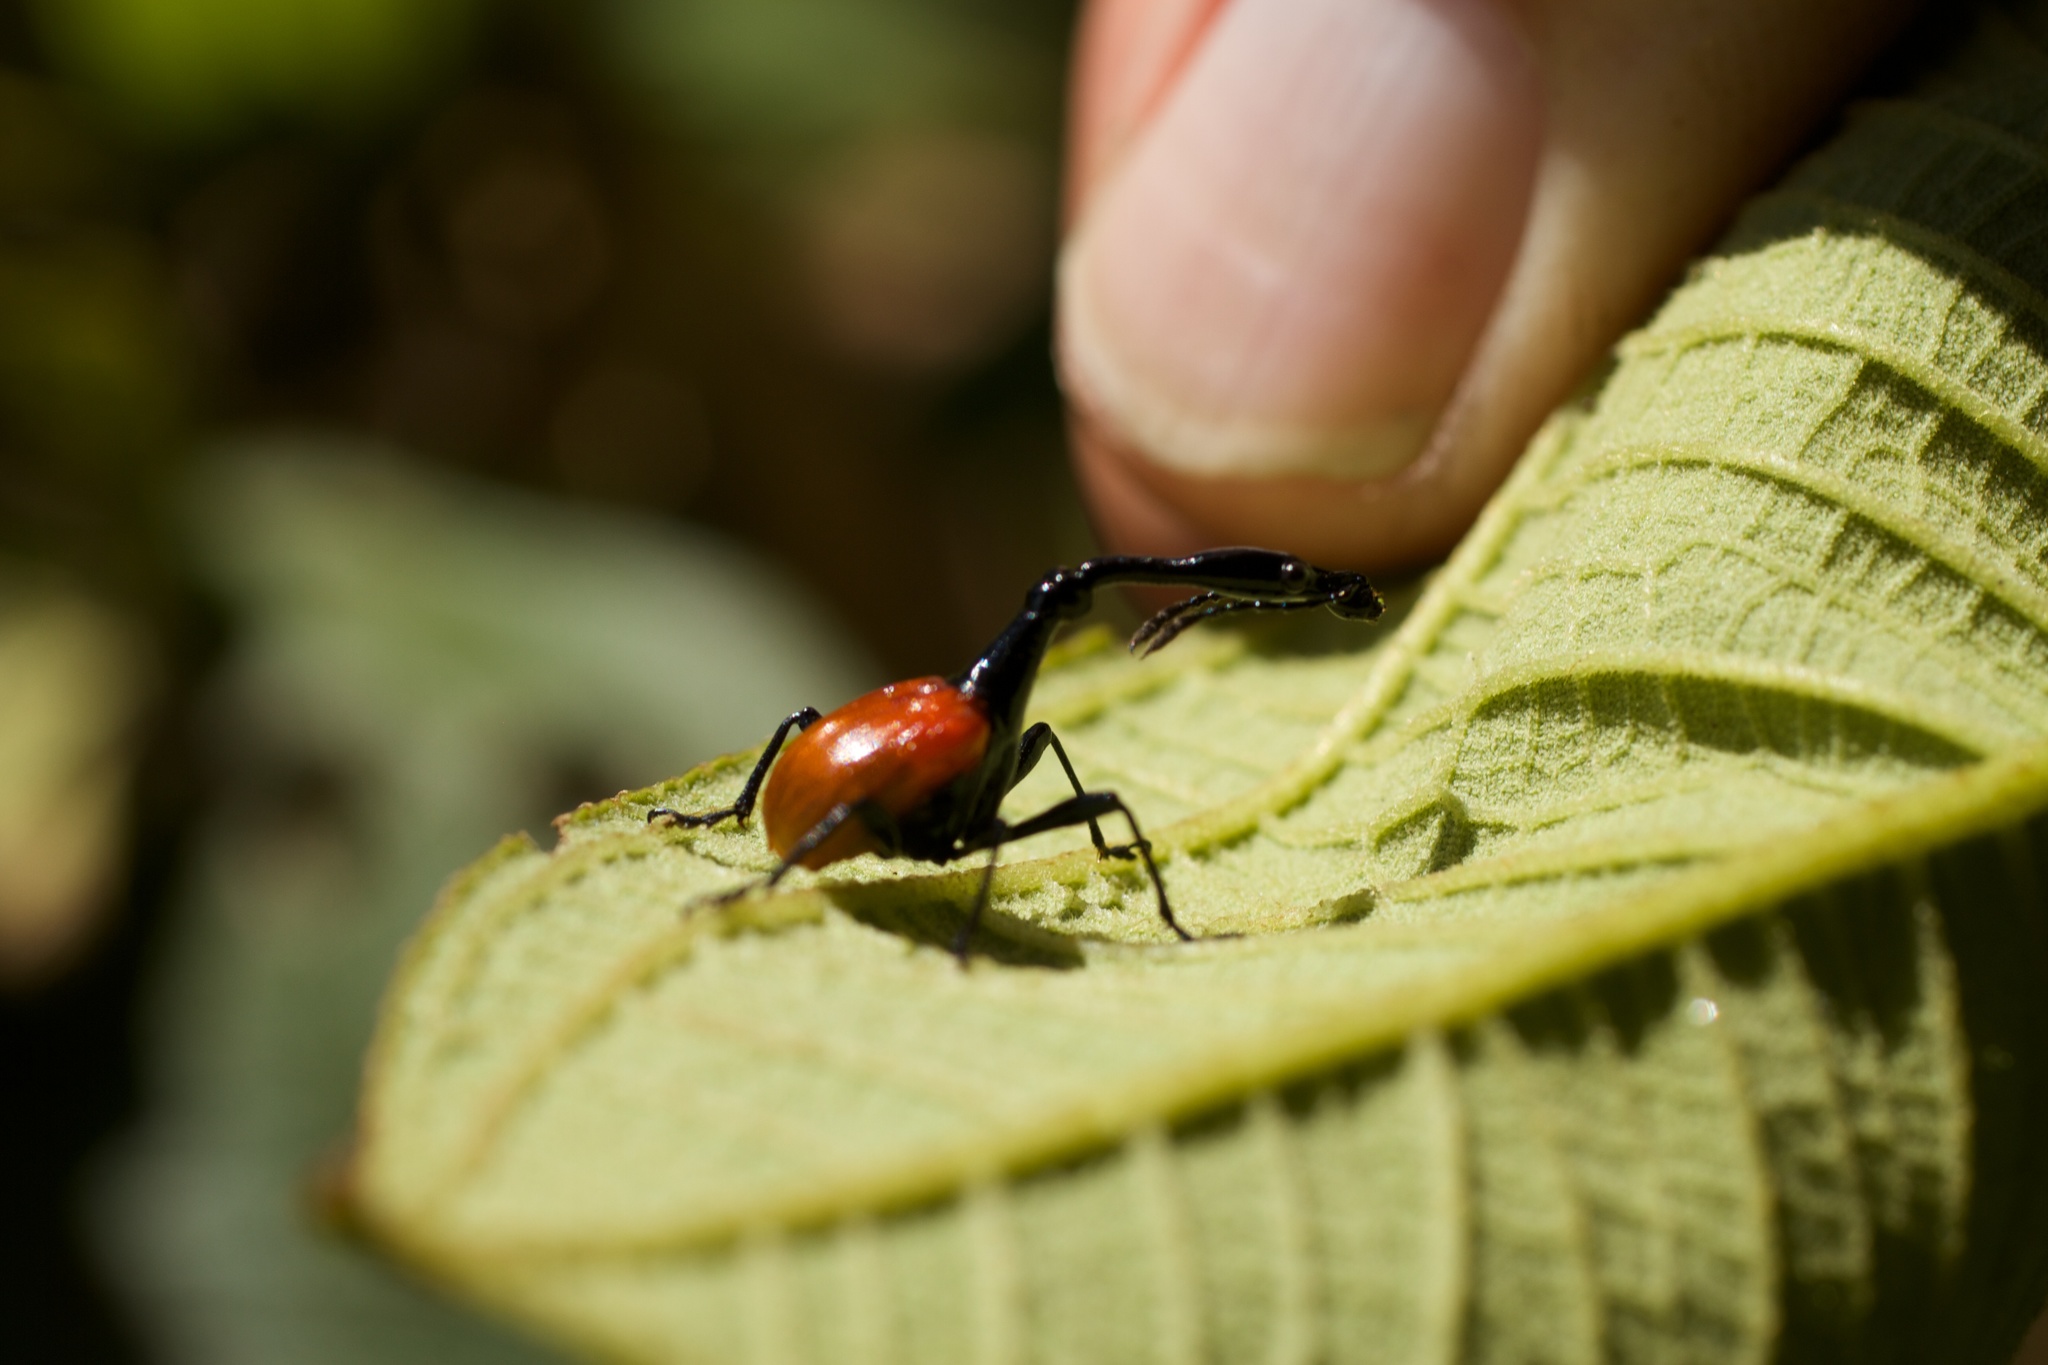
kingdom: Animalia
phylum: Arthropoda
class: Insecta
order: Coleoptera
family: Attelabidae
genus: Trachelophorus
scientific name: Trachelophorus giraffa
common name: Giraffe weevil
